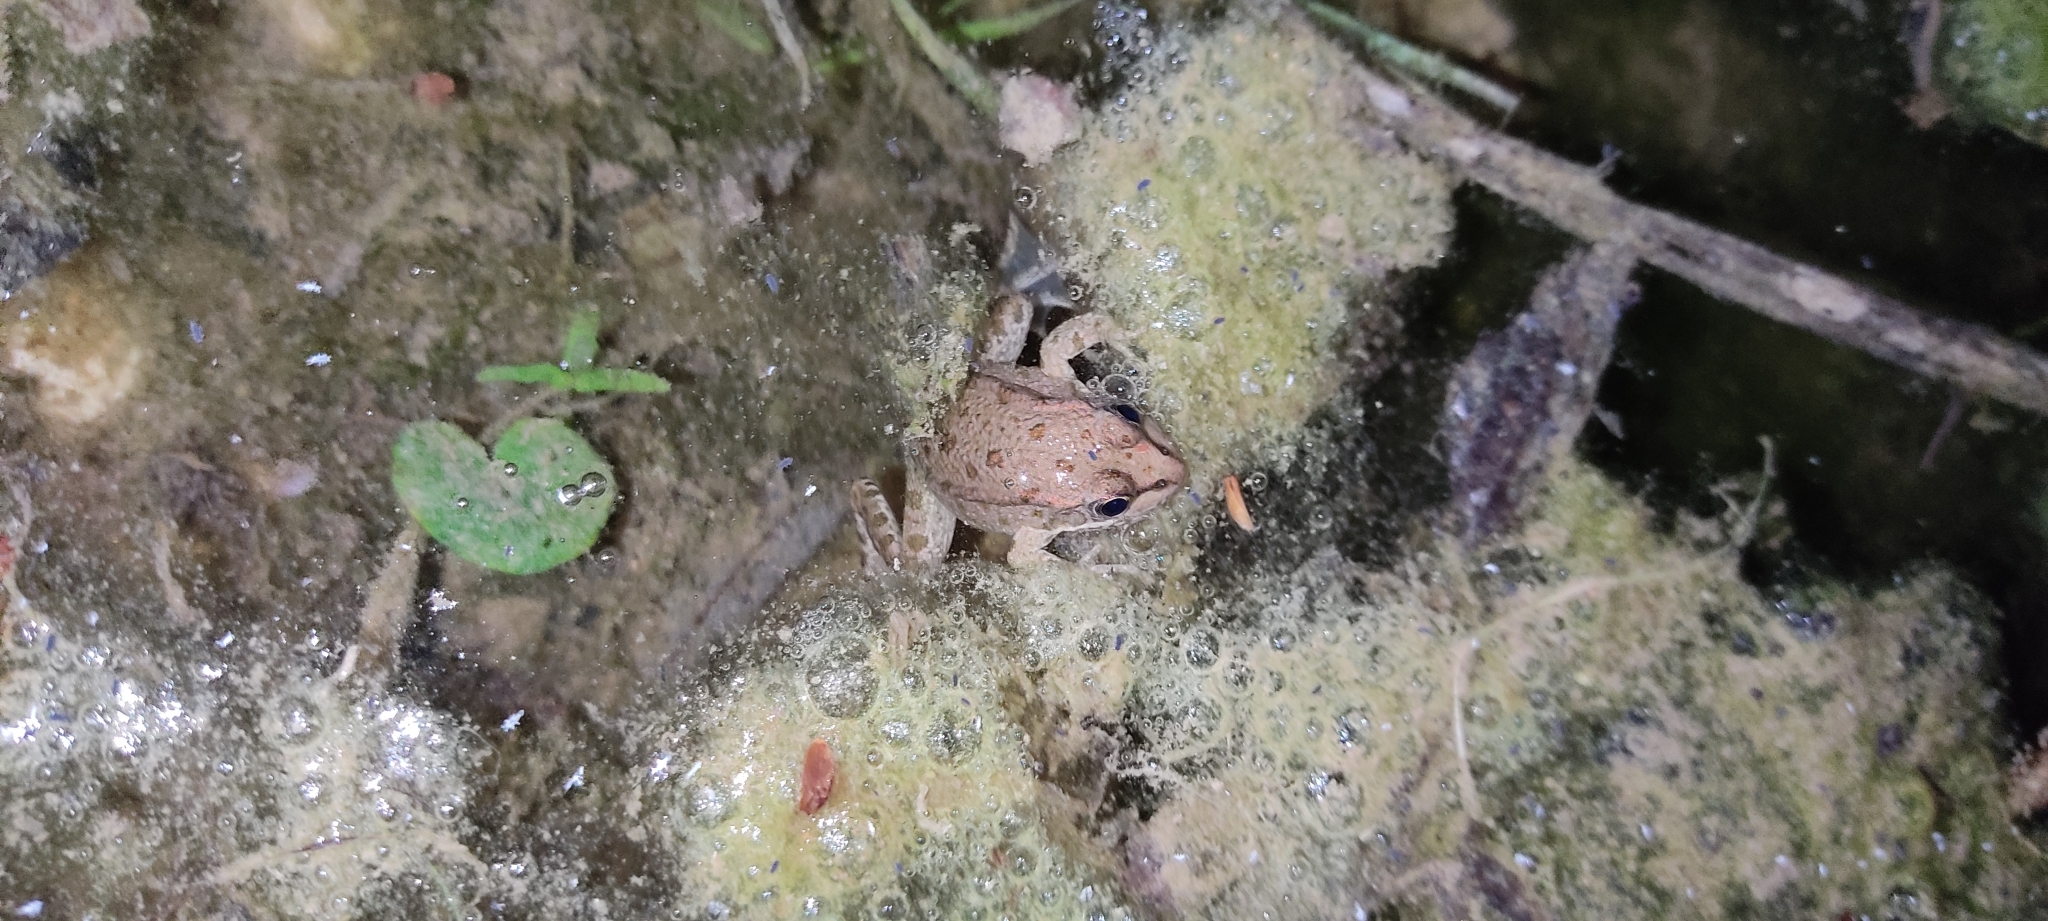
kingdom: Animalia
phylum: Chordata
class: Amphibia
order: Anura
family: Ranidae
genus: Pelophylax
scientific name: Pelophylax
